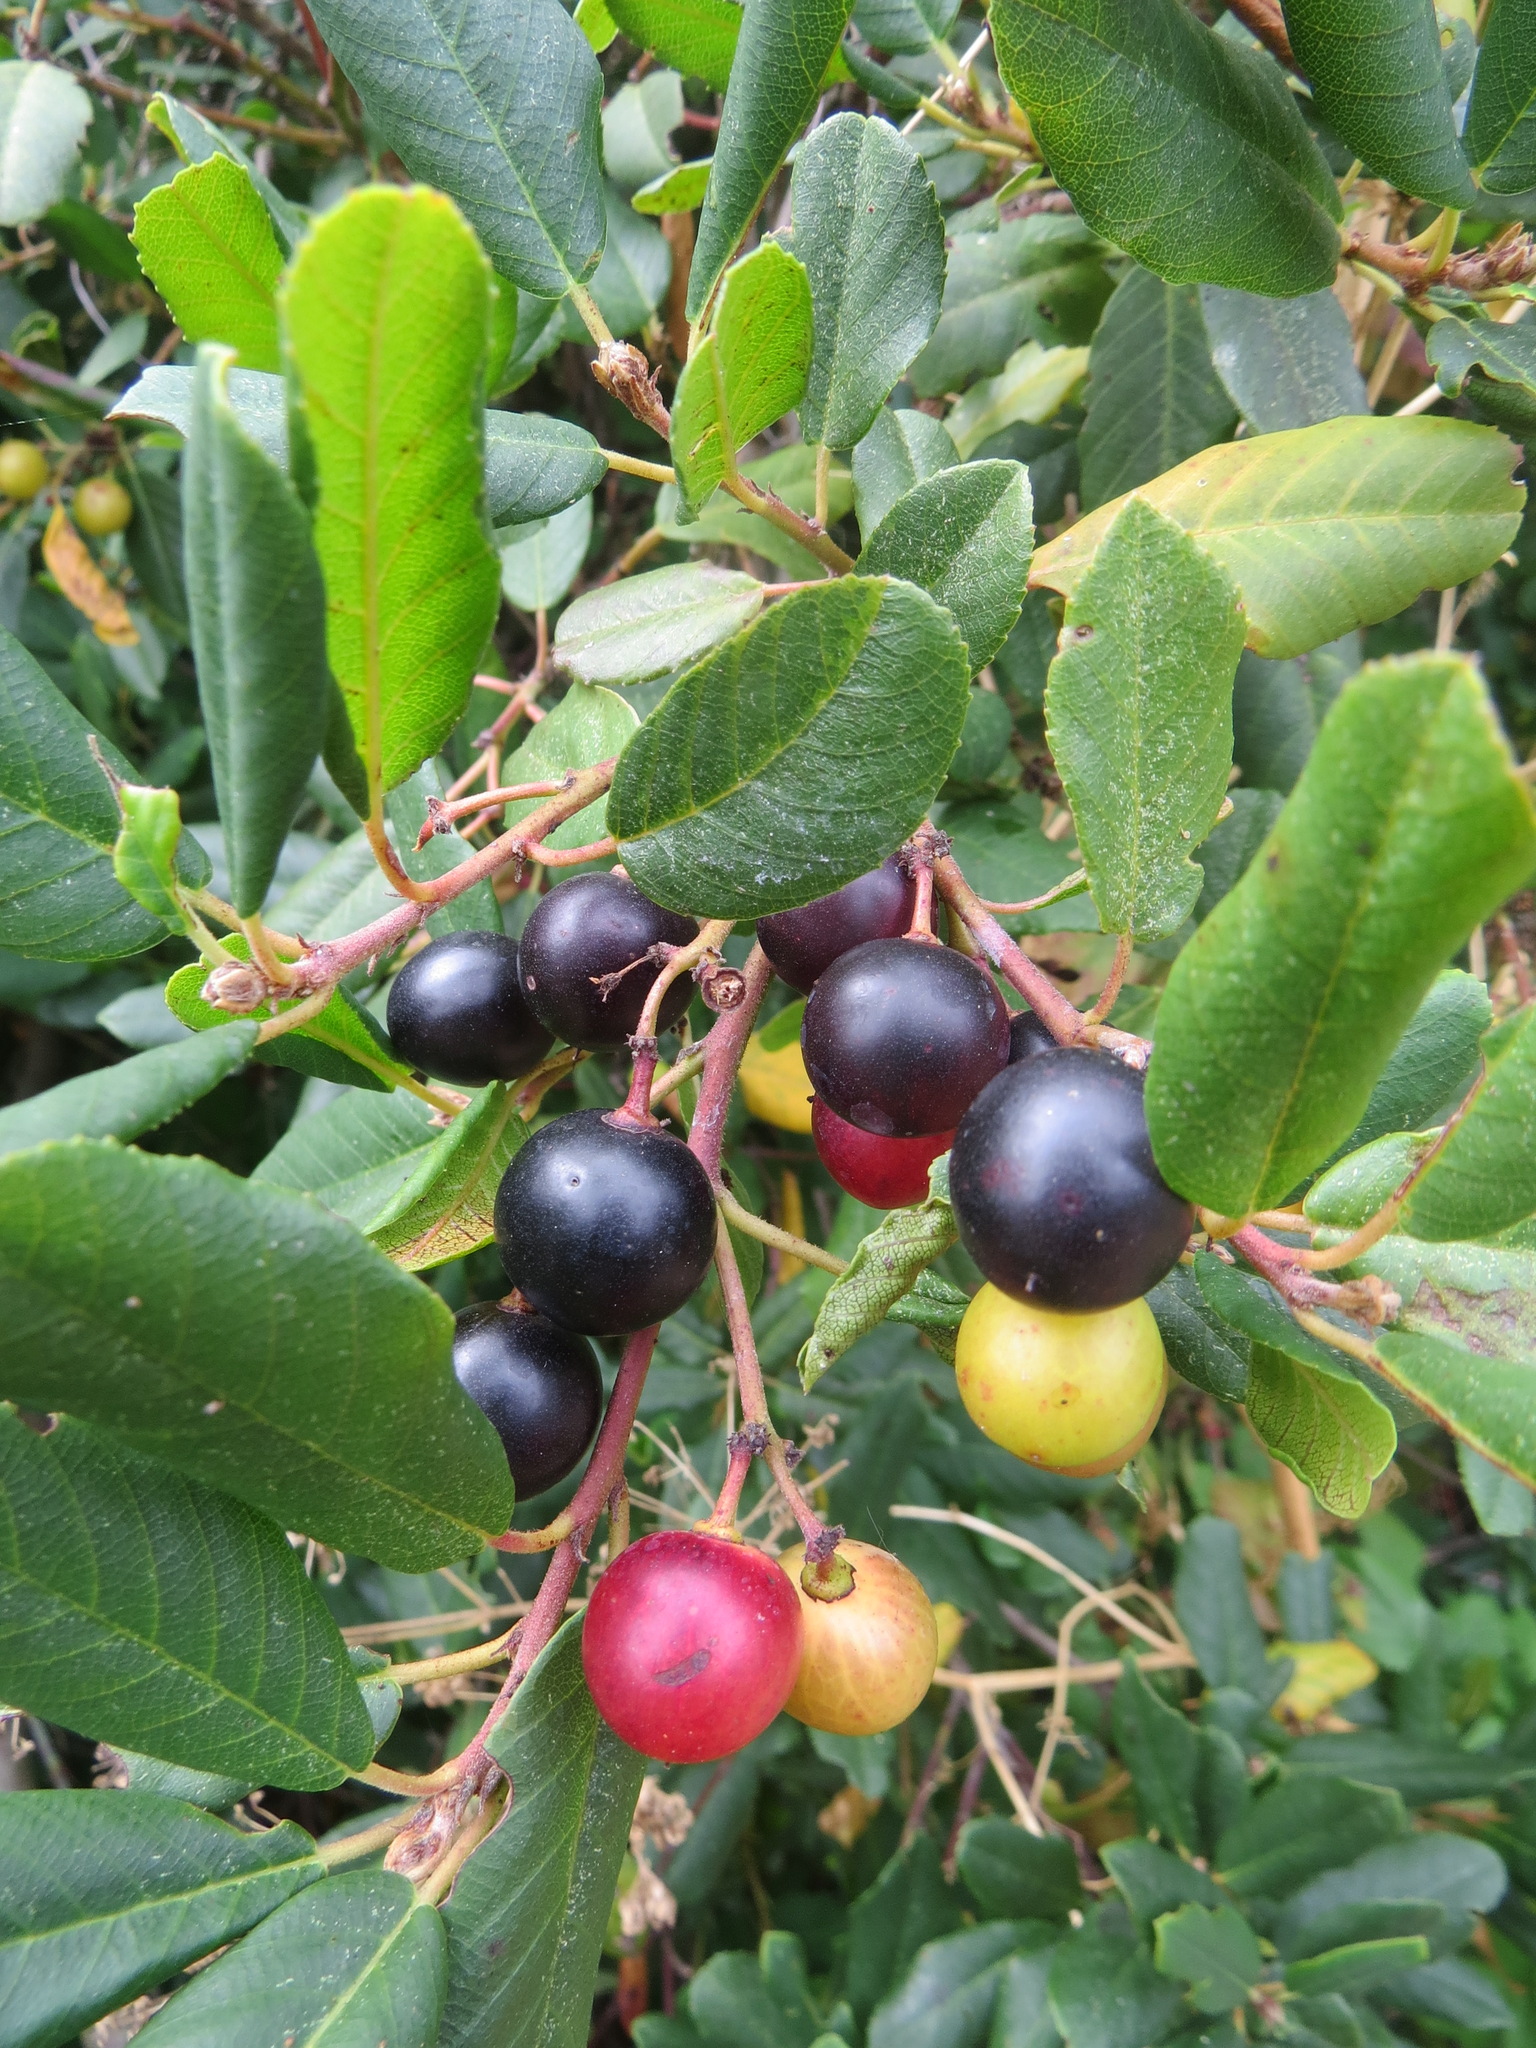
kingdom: Plantae
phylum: Tracheophyta
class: Magnoliopsida
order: Rosales
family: Rhamnaceae
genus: Frangula
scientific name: Frangula californica
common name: California buckthorn
